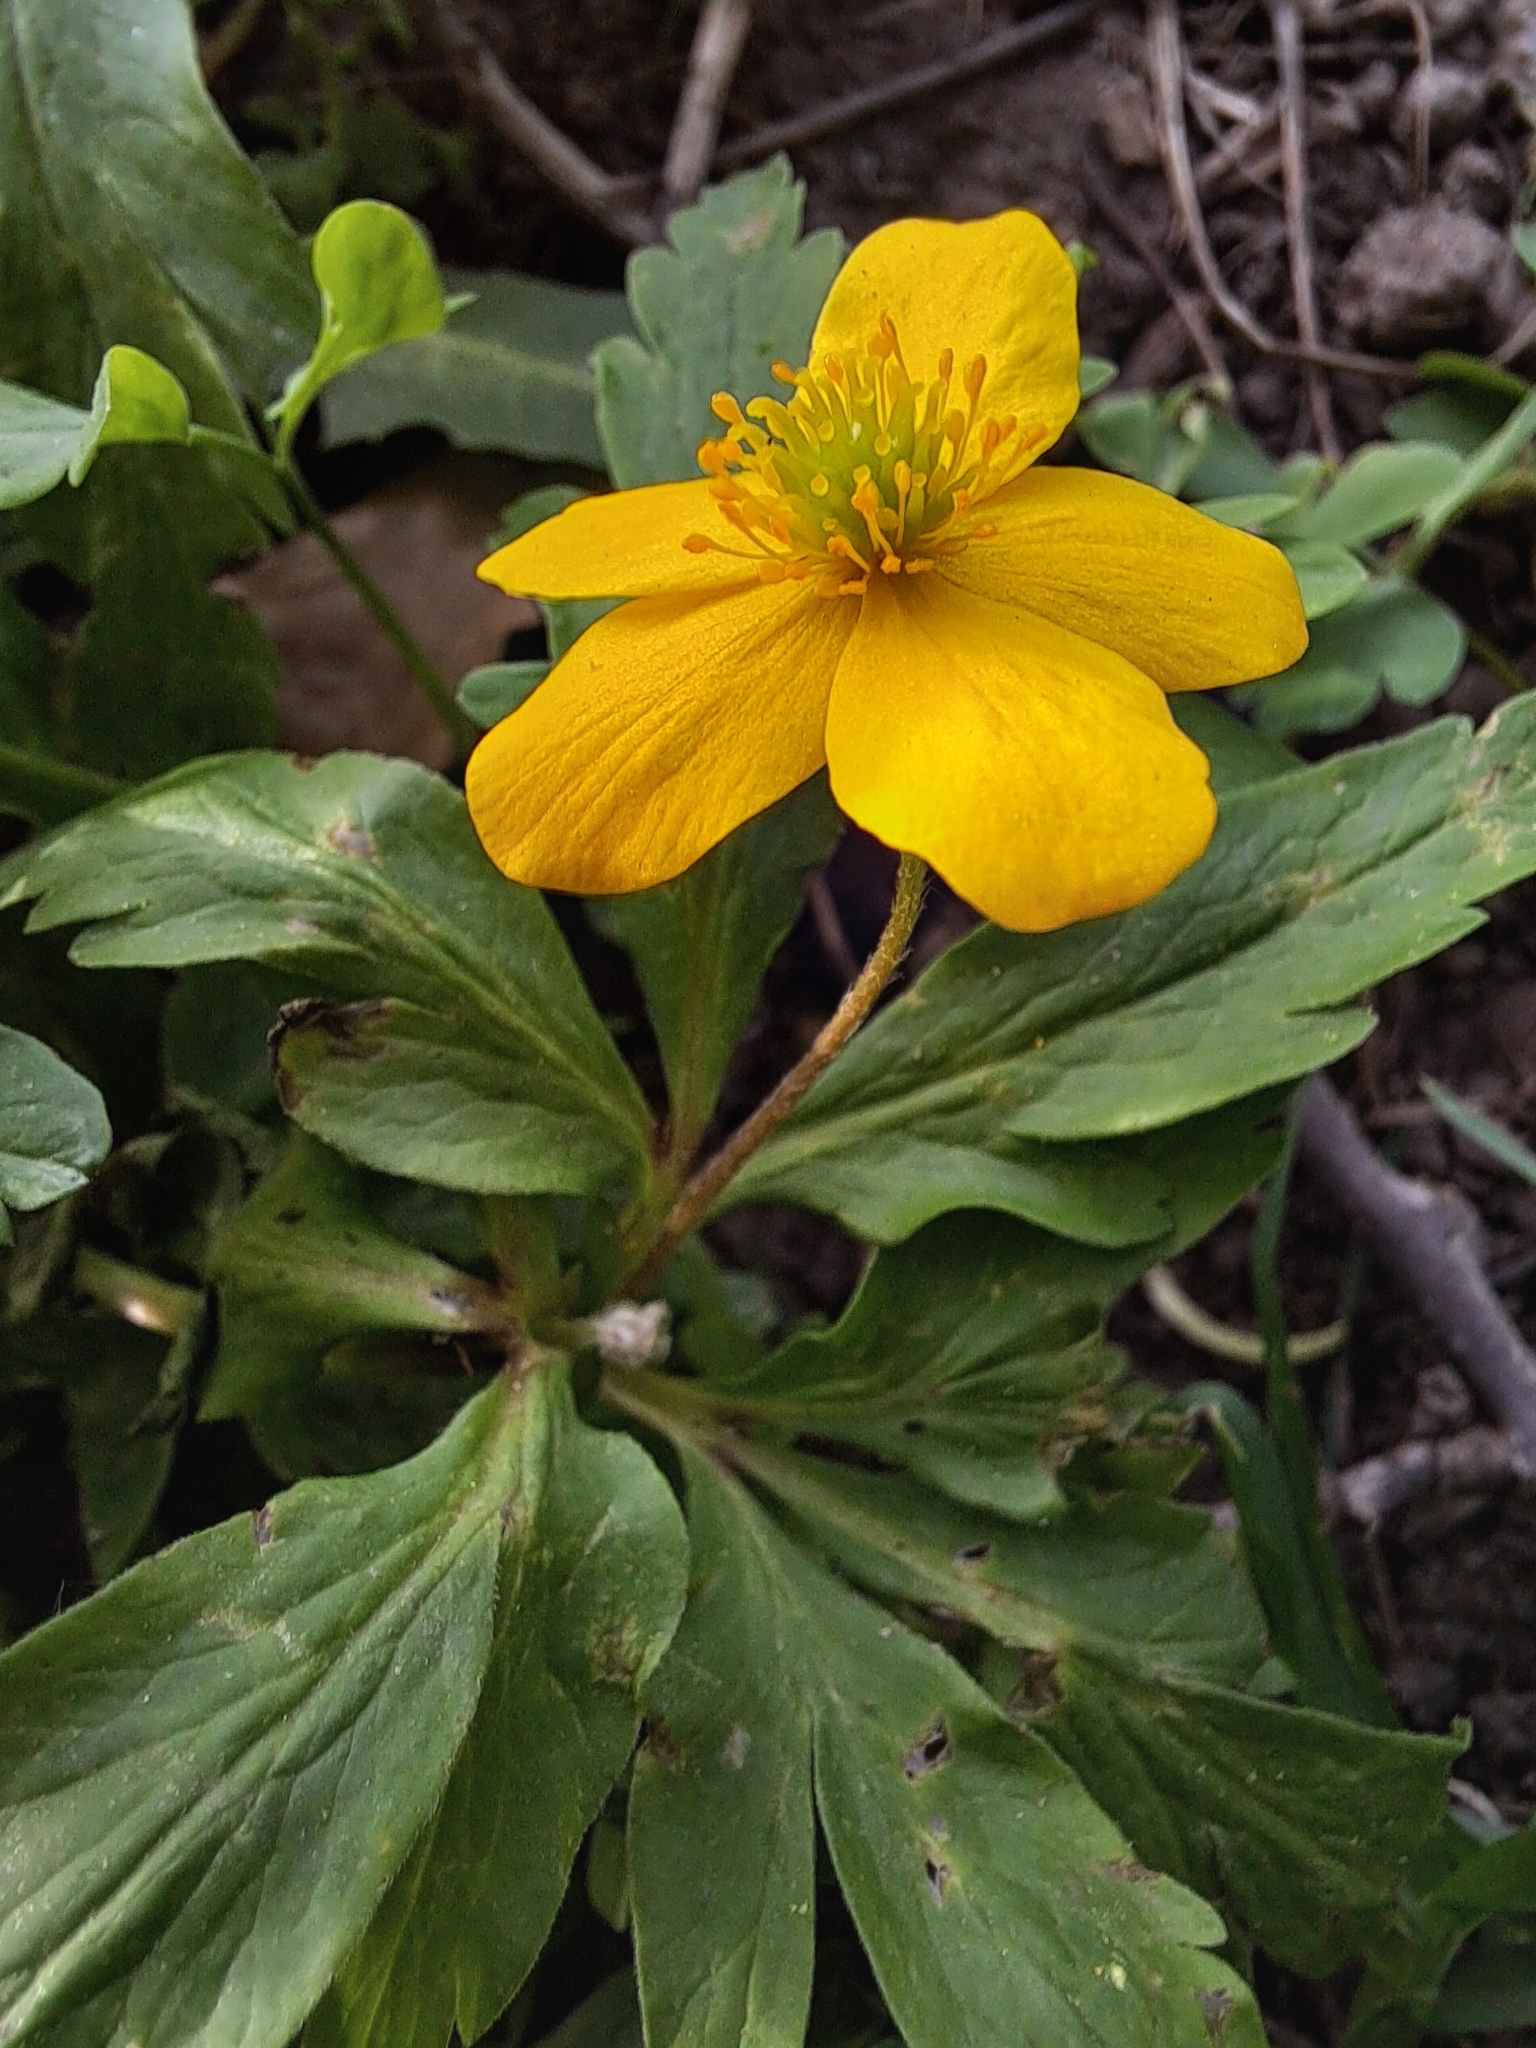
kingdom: Plantae
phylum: Tracheophyta
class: Magnoliopsida
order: Ranunculales
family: Ranunculaceae
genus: Anemone
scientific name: Anemone ranunculoides
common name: Yellow anemone
